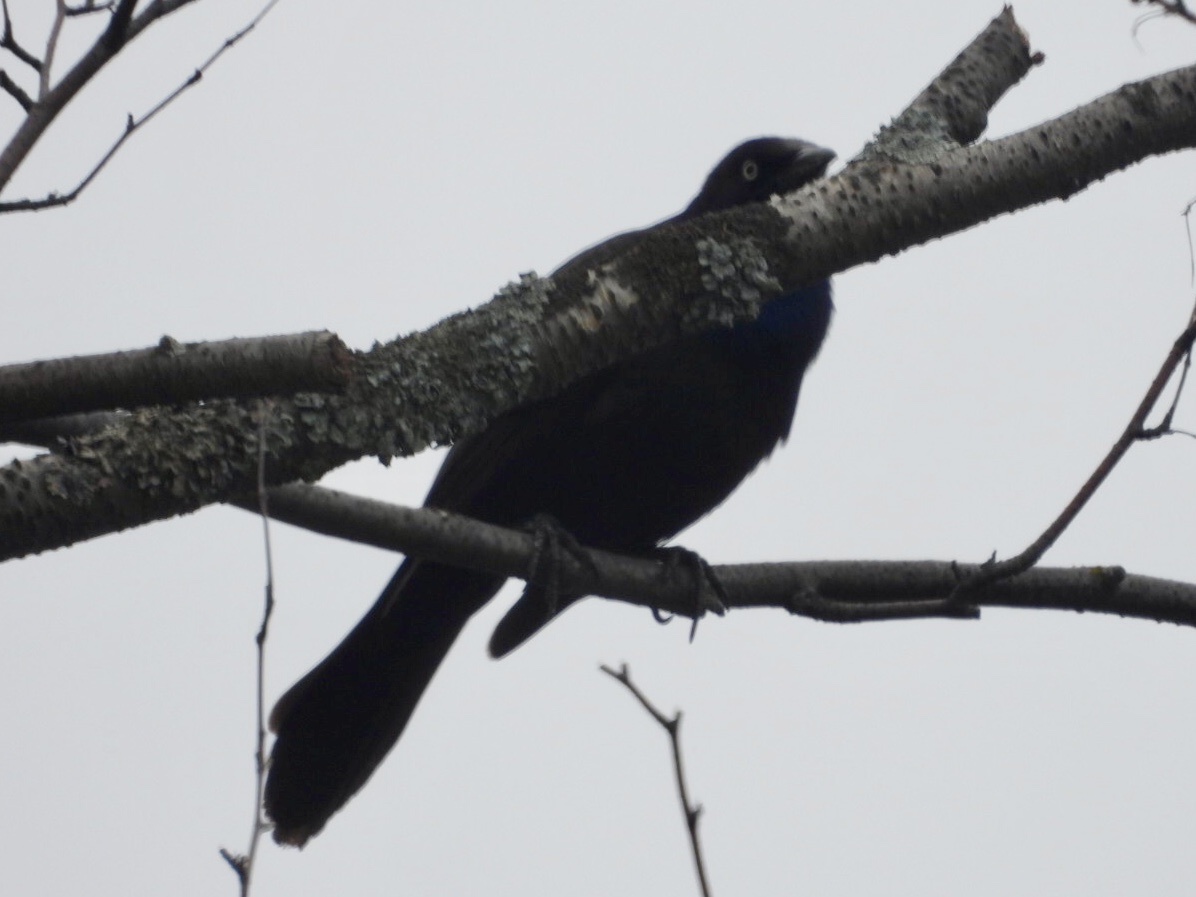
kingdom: Animalia
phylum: Chordata
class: Aves
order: Passeriformes
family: Icteridae
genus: Quiscalus
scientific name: Quiscalus quiscula
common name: Common grackle
